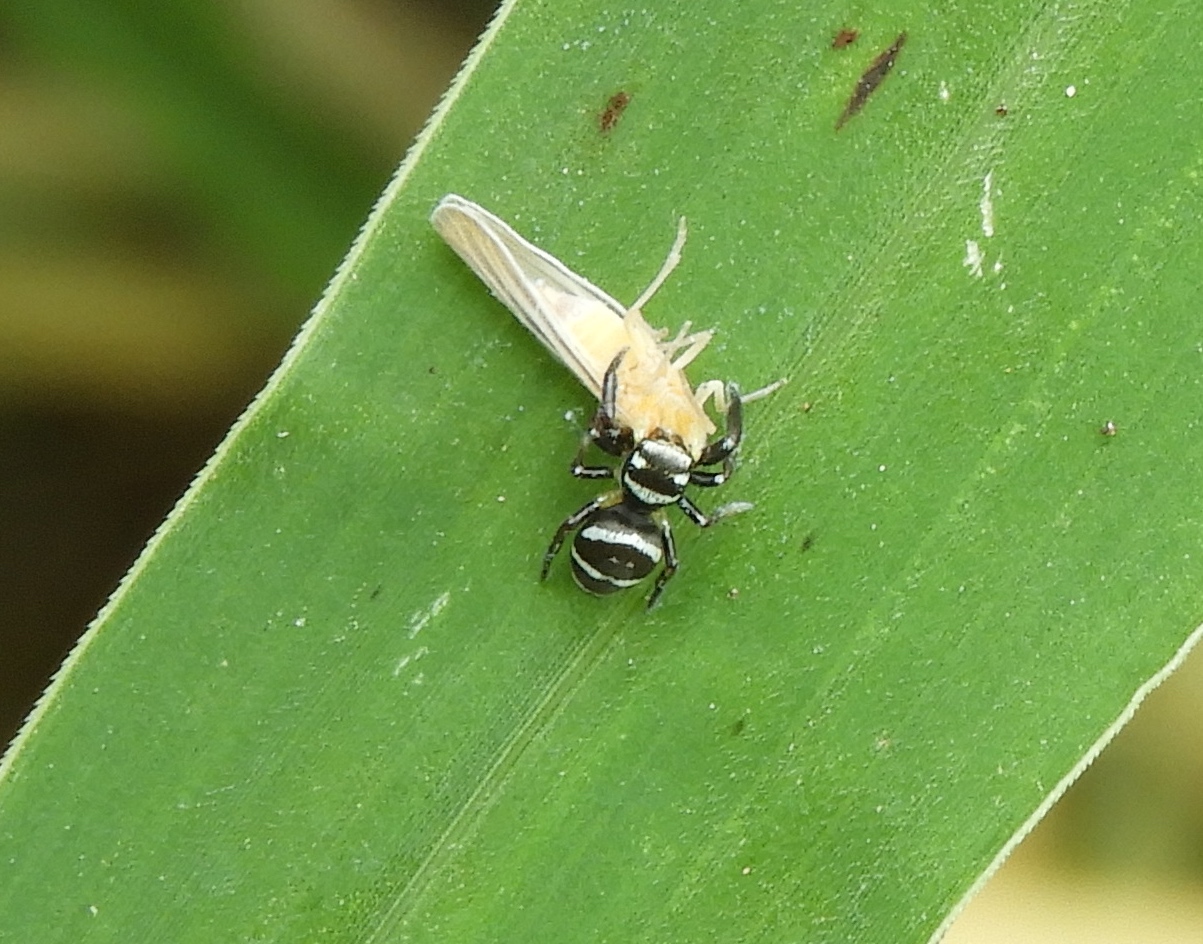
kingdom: Animalia
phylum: Arthropoda
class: Arachnida
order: Araneae
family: Salticidae
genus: Salticus
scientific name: Salticus
